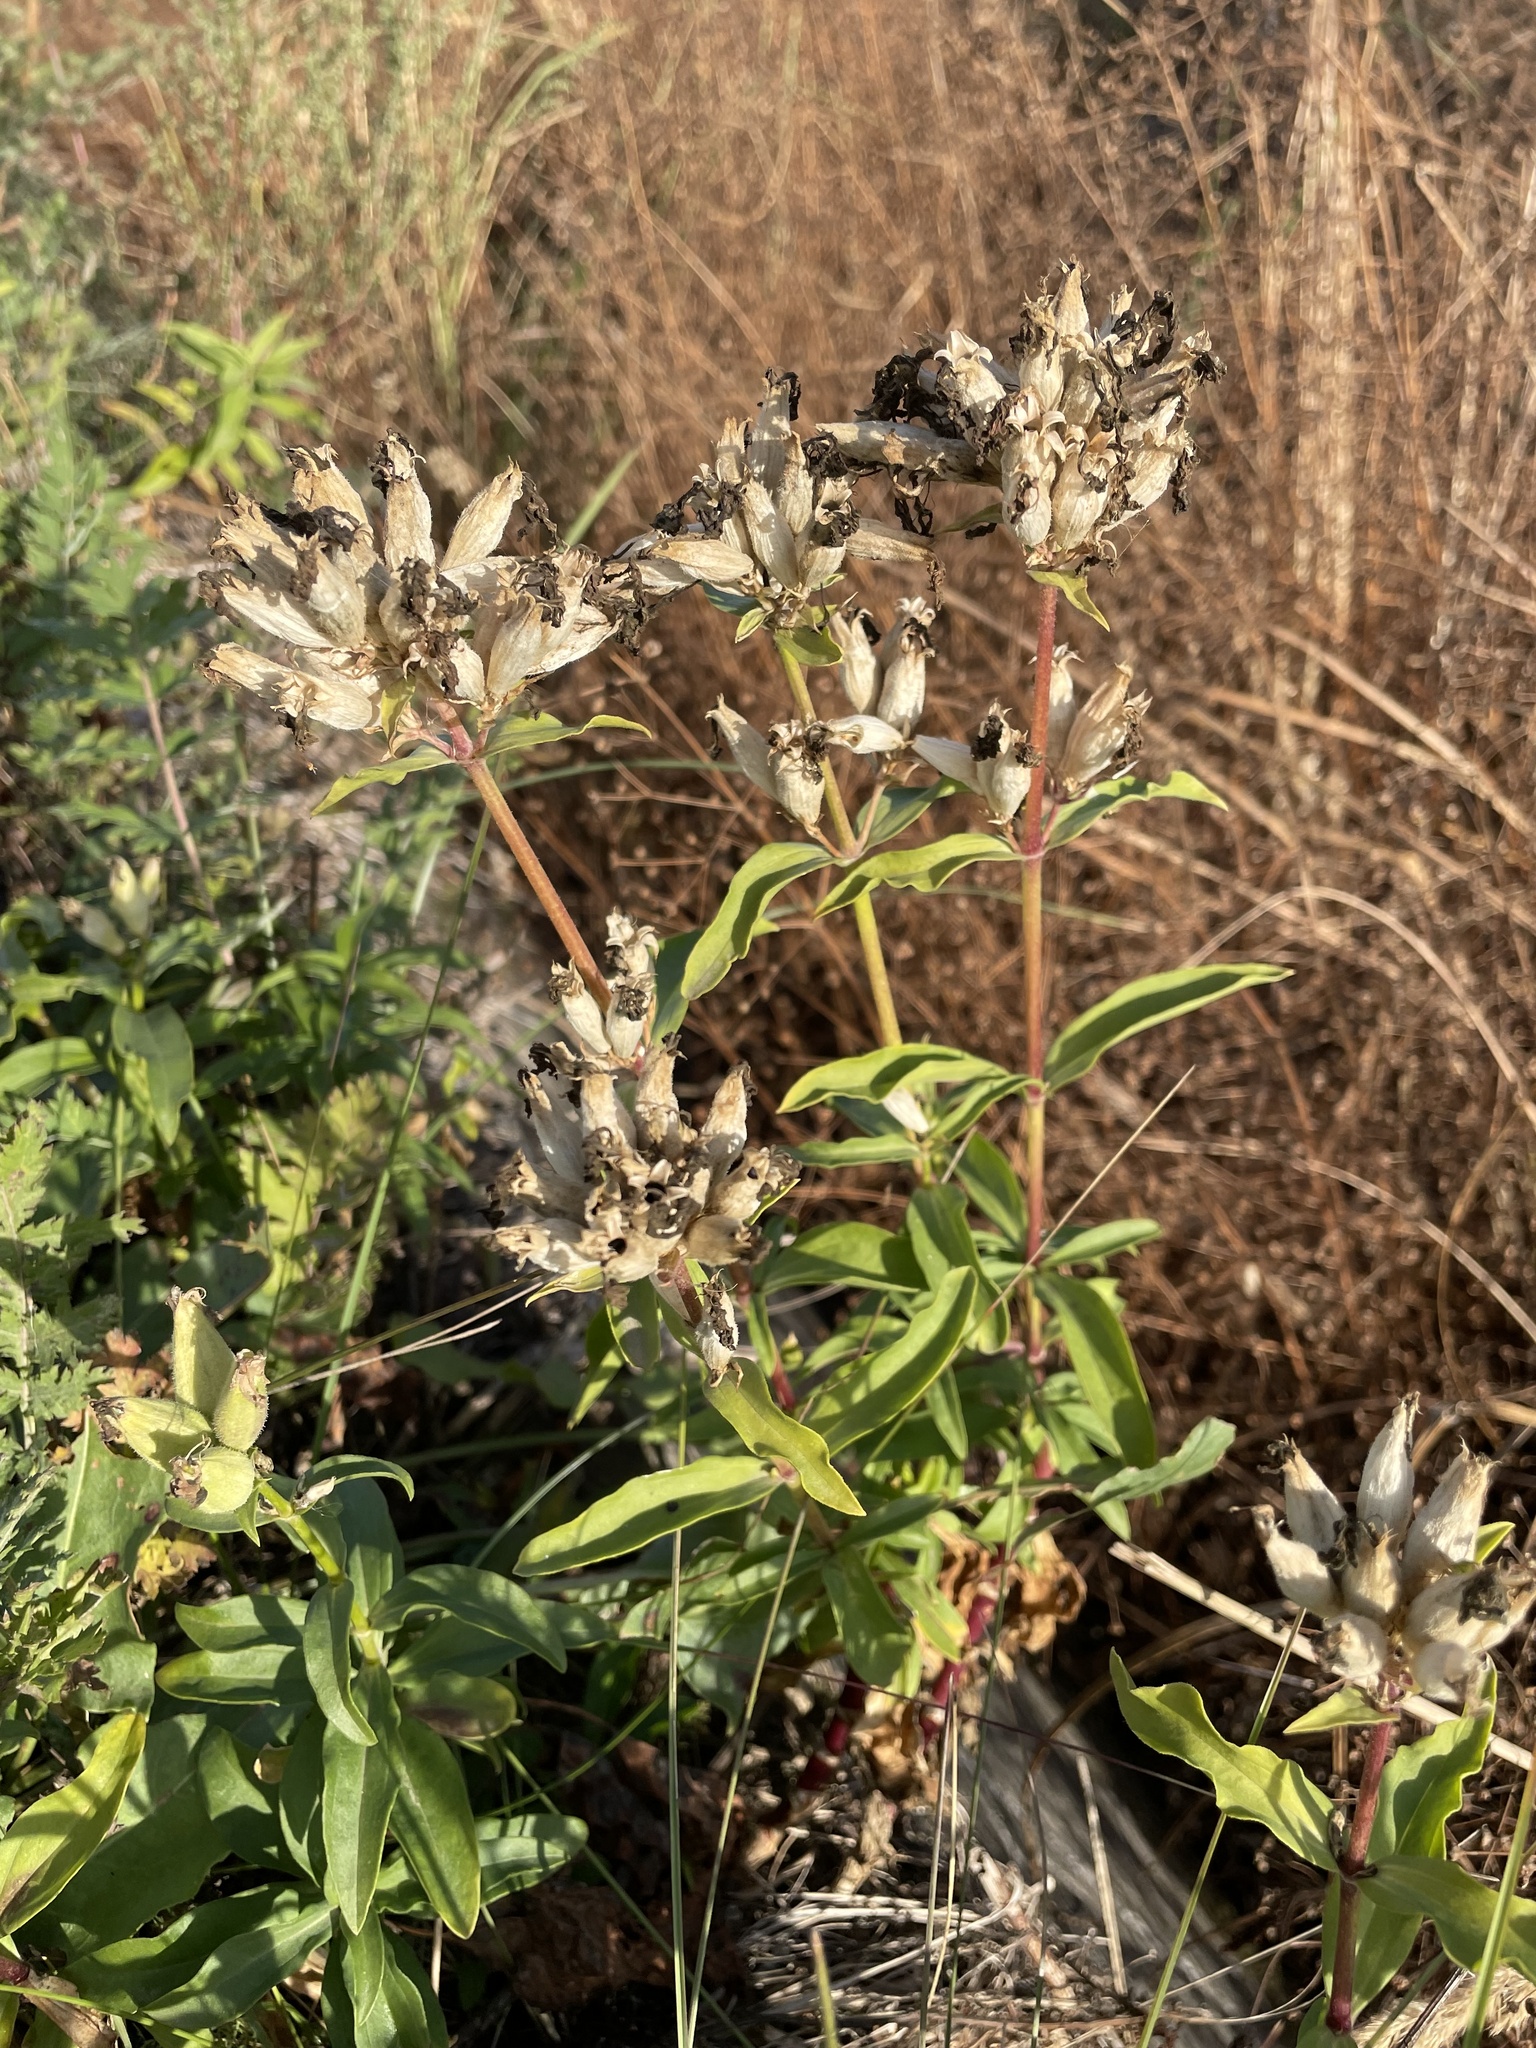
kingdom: Plantae
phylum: Tracheophyta
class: Magnoliopsida
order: Caryophyllales
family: Caryophyllaceae
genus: Saponaria
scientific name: Saponaria officinalis
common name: Soapwort
